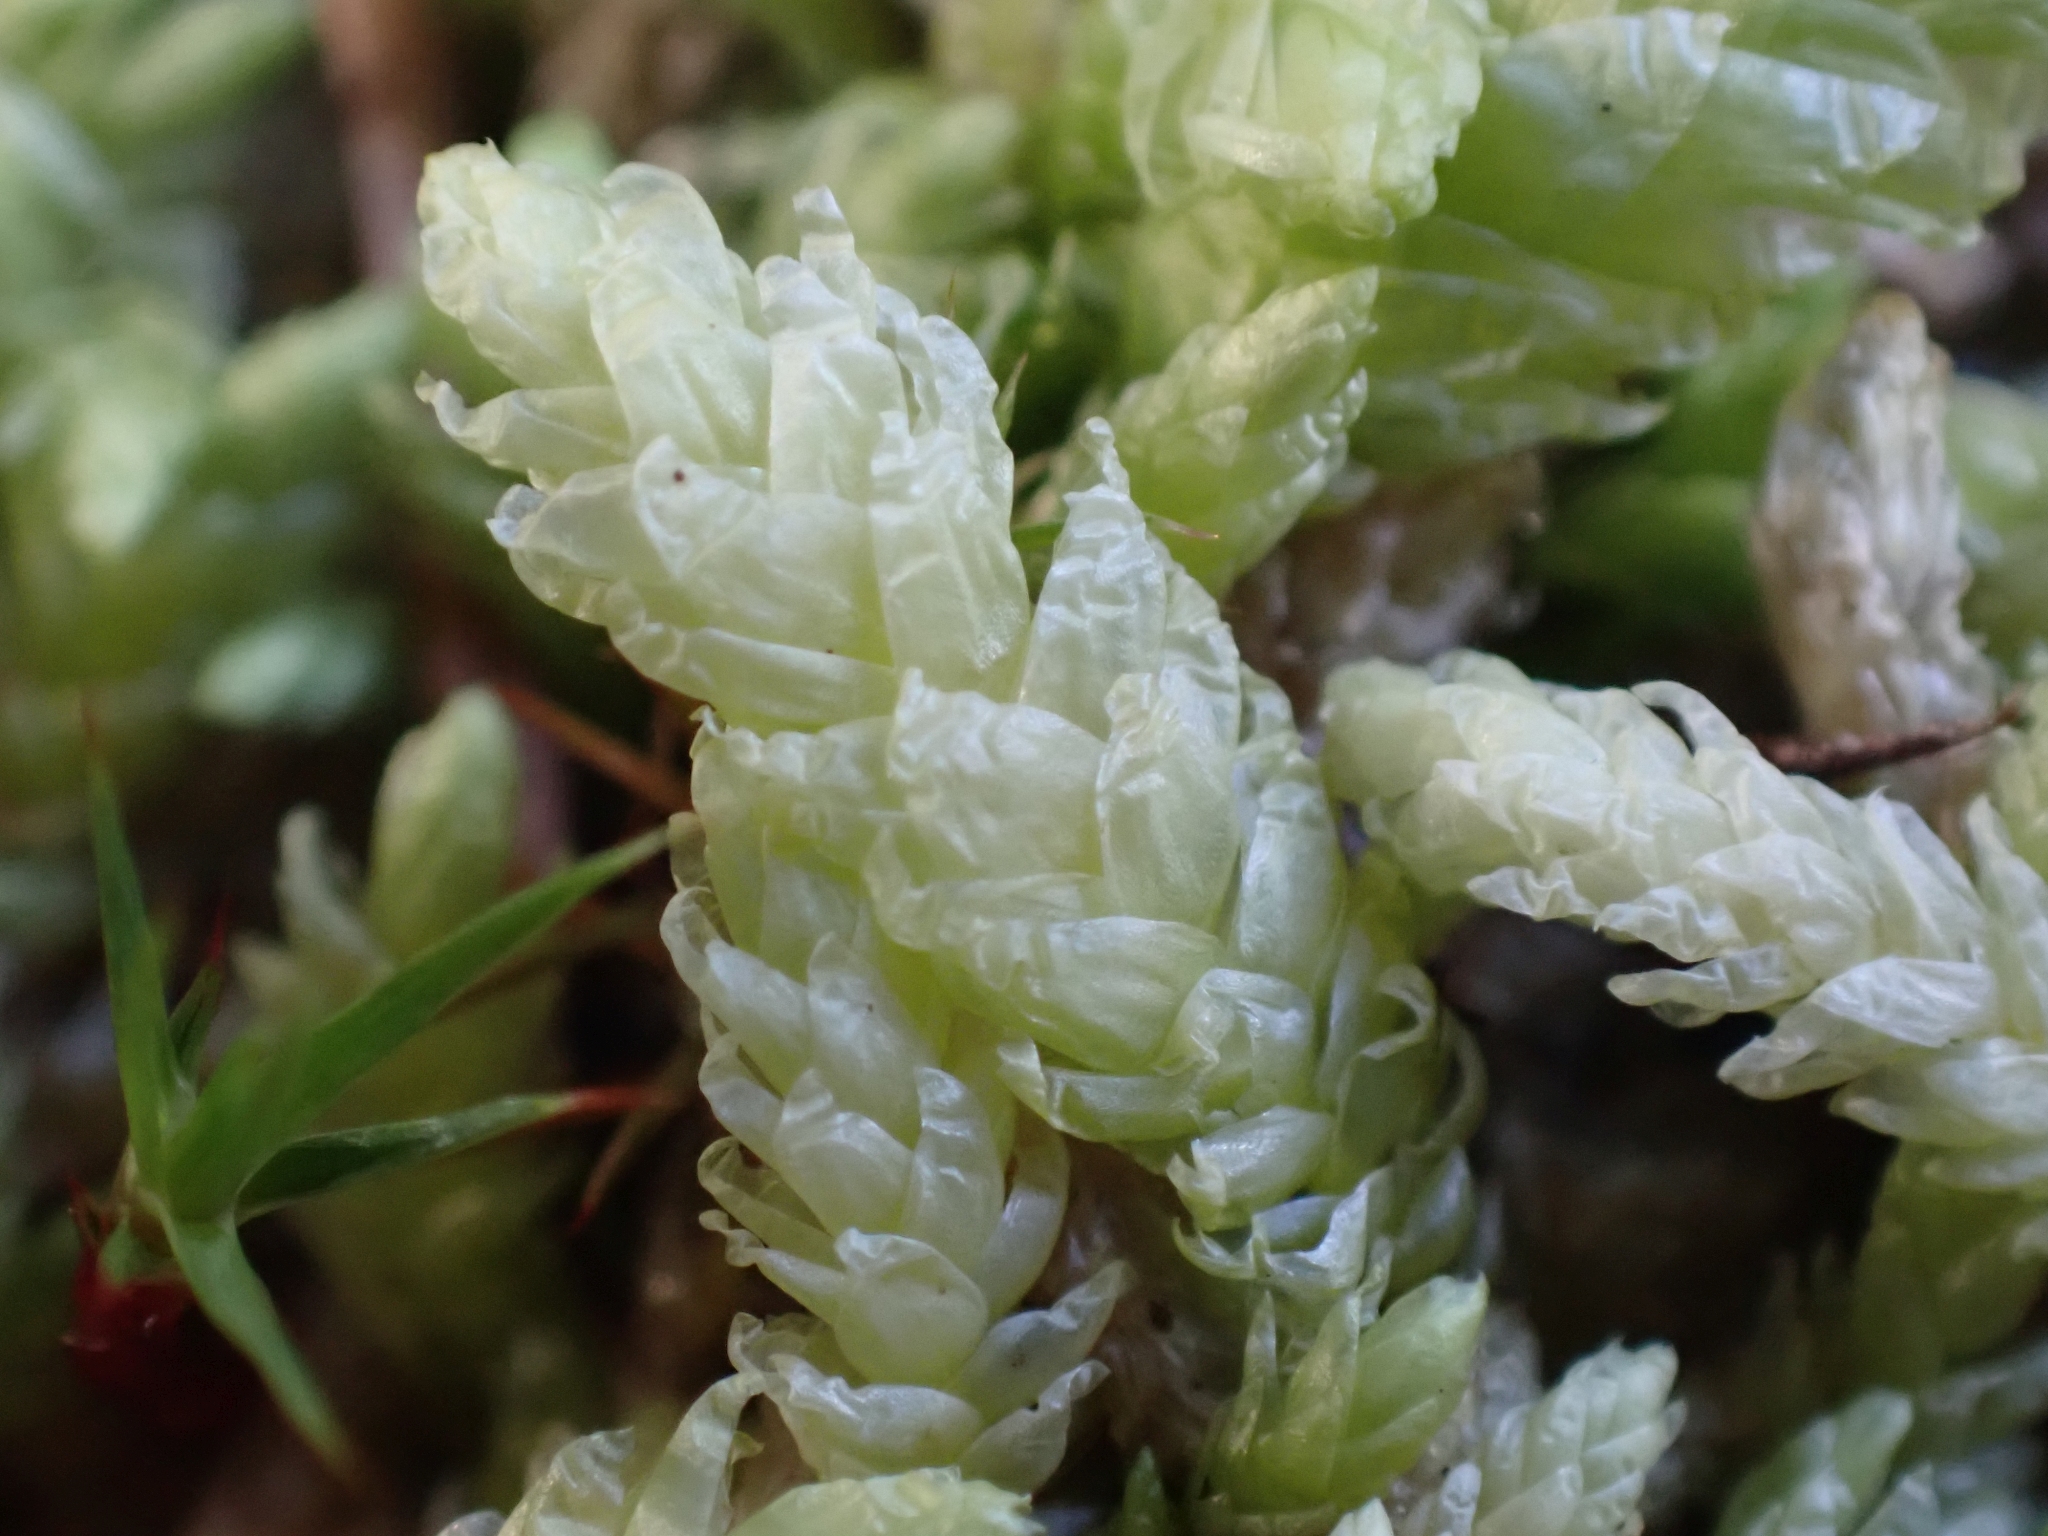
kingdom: Plantae
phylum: Bryophyta
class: Bryopsida
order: Hypnales
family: Plagiotheciaceae
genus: Plagiothecium
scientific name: Plagiothecium undulatum
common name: Waved silk-moss
